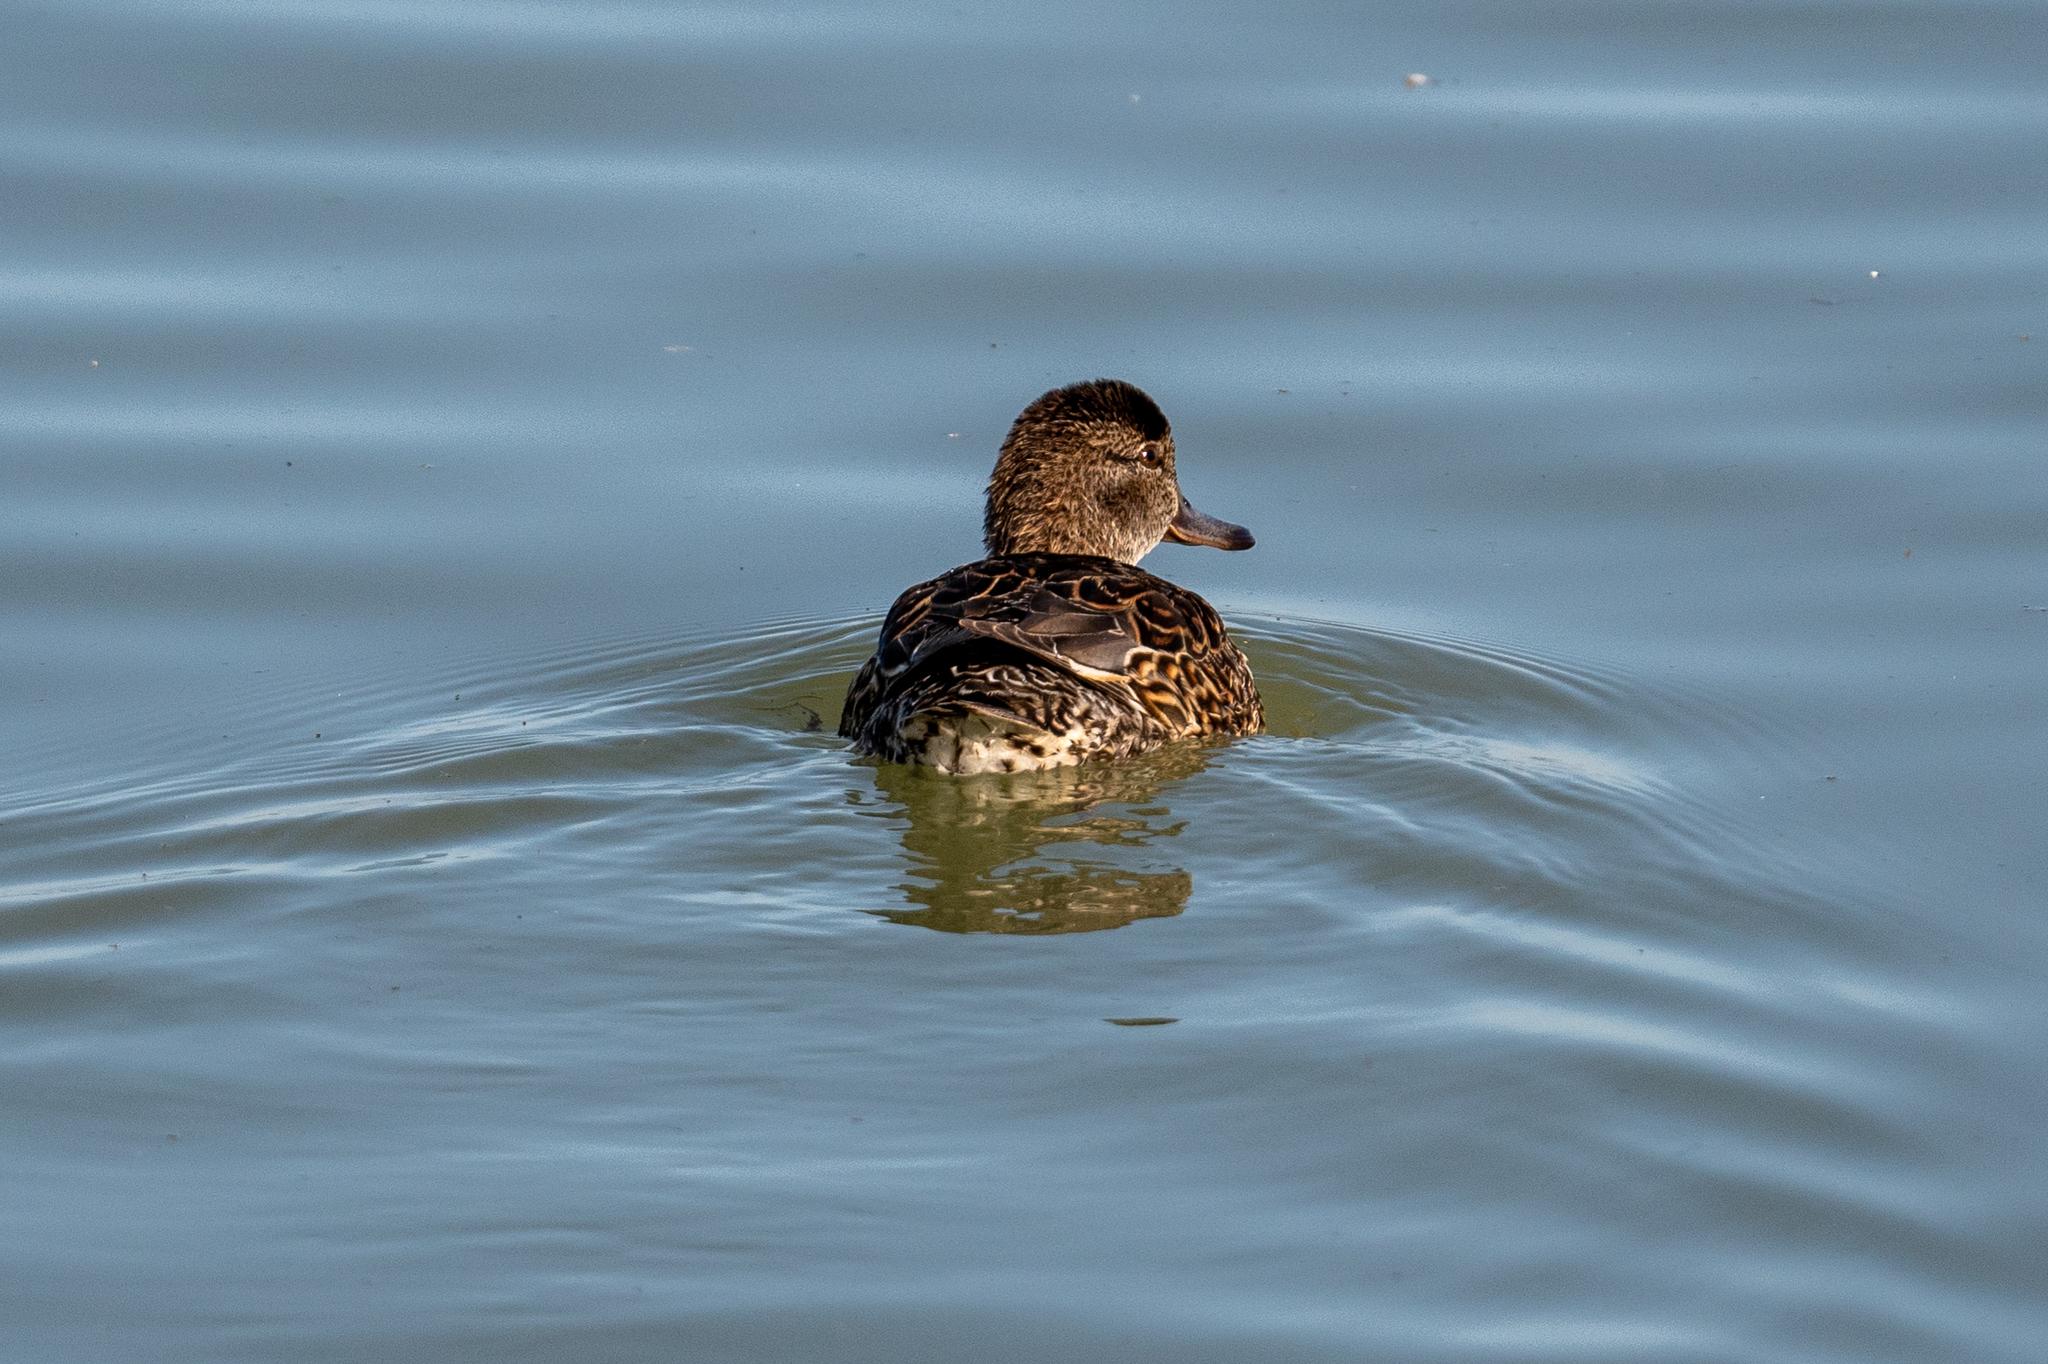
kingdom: Animalia
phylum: Chordata
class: Aves
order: Anseriformes
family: Anatidae
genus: Mareca
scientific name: Mareca strepera
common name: Gadwall
